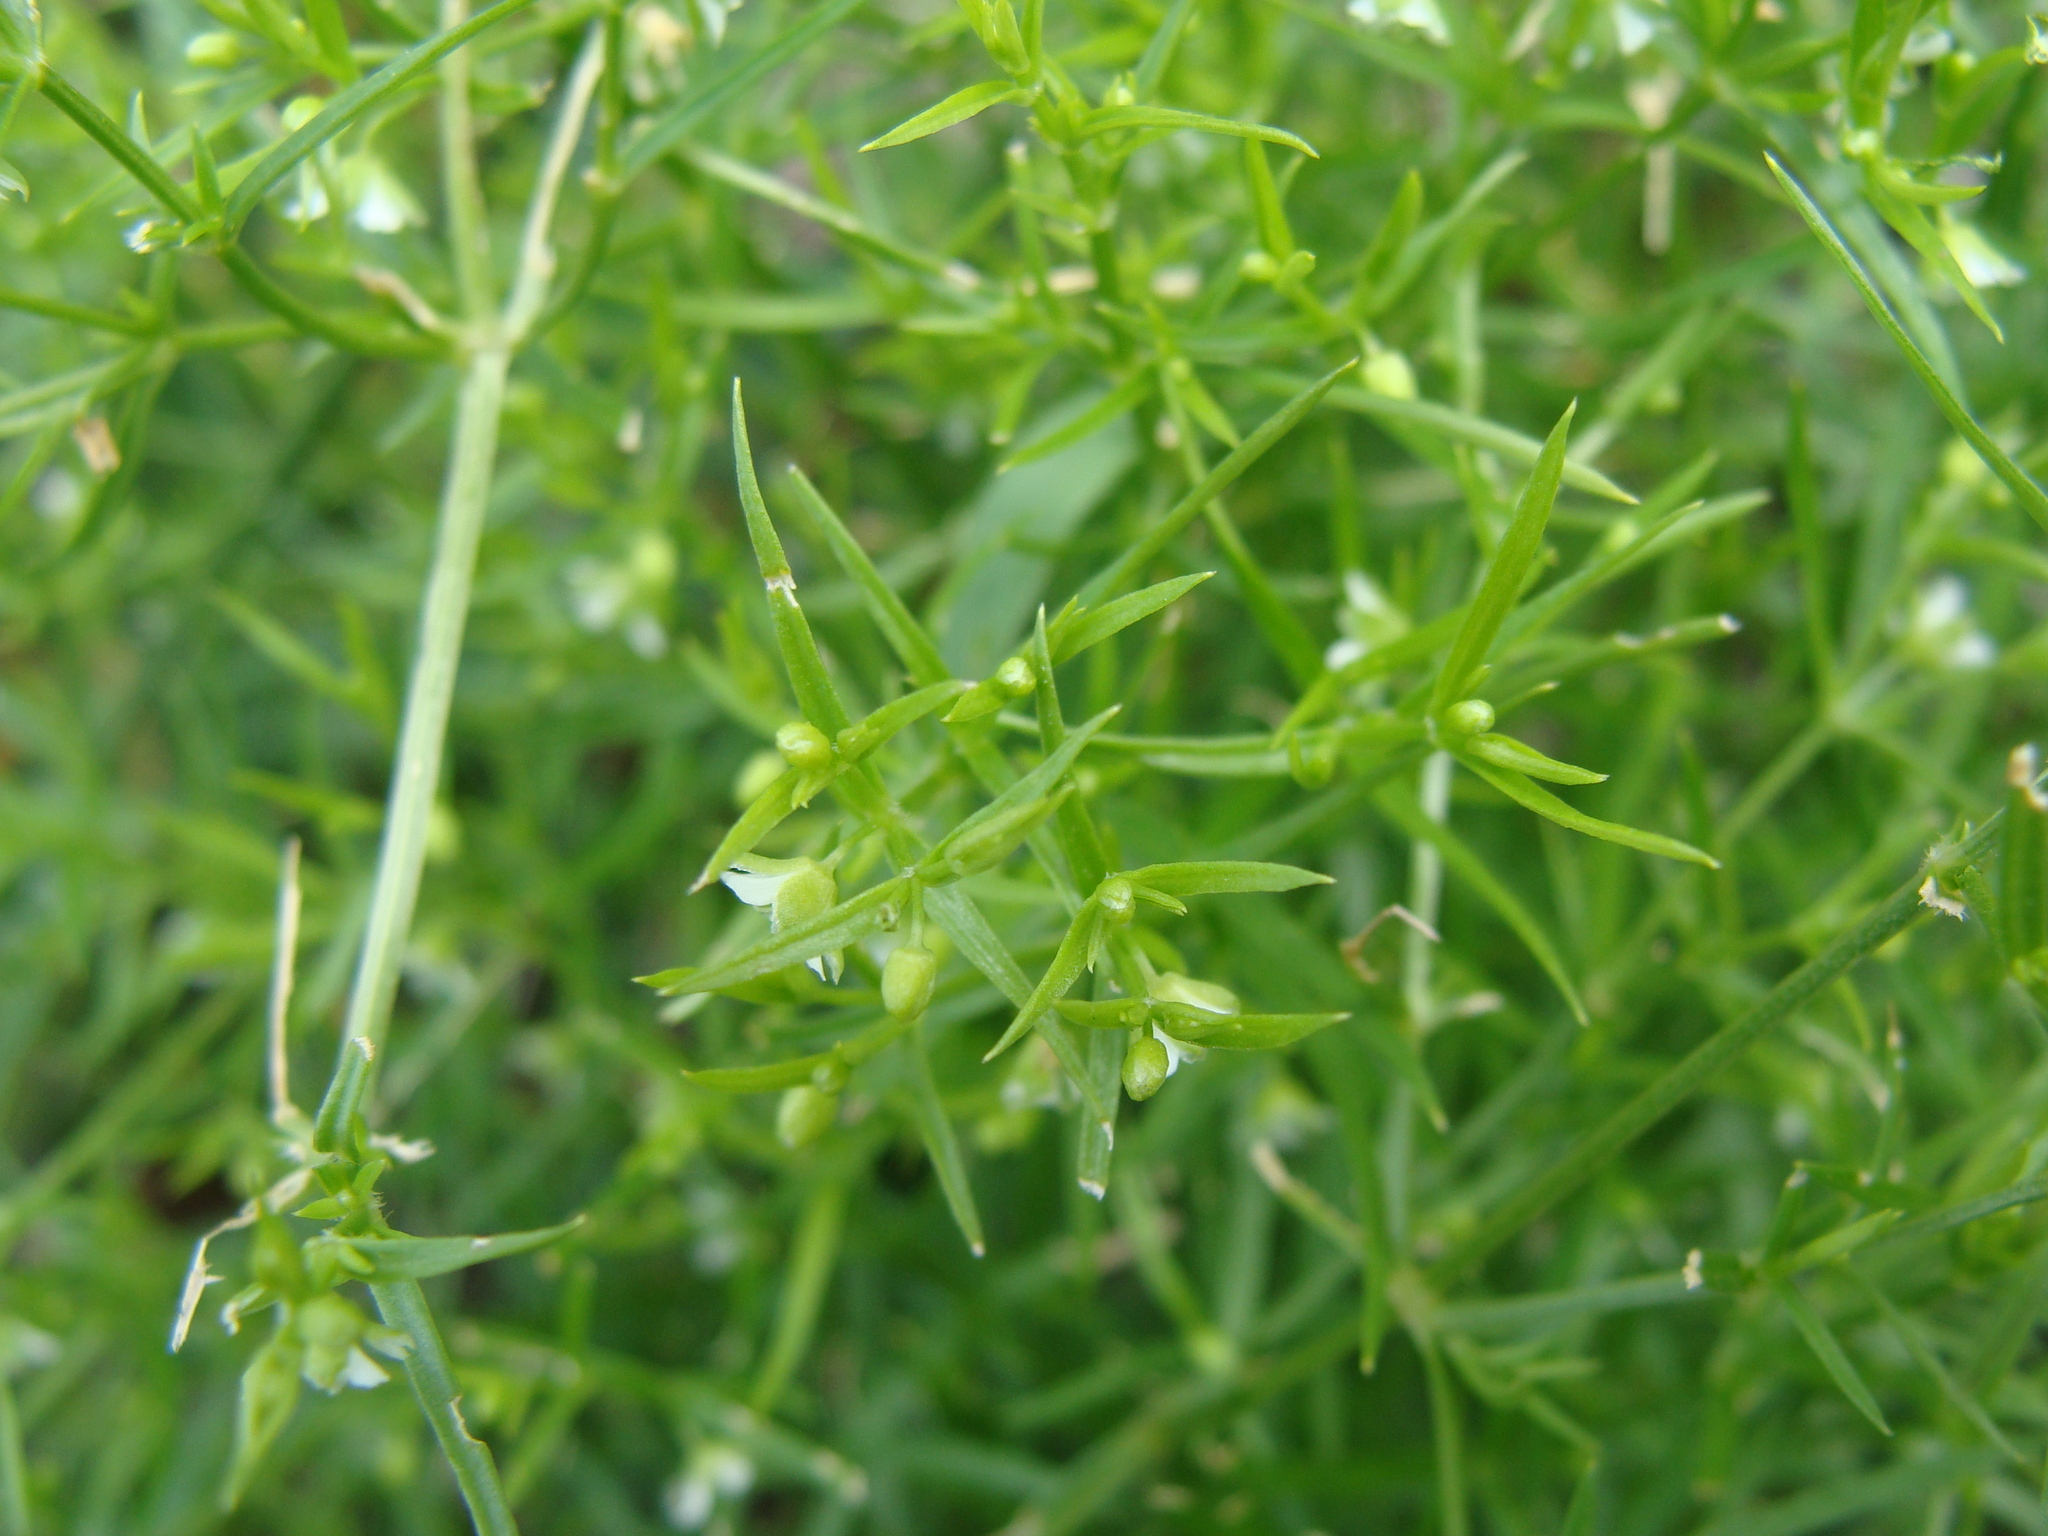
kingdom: Plantae
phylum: Tracheophyta
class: Magnoliopsida
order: Caryophyllales
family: Caryophyllaceae
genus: Arenaria
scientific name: Arenaria paludicola
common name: Marsh sandwort
